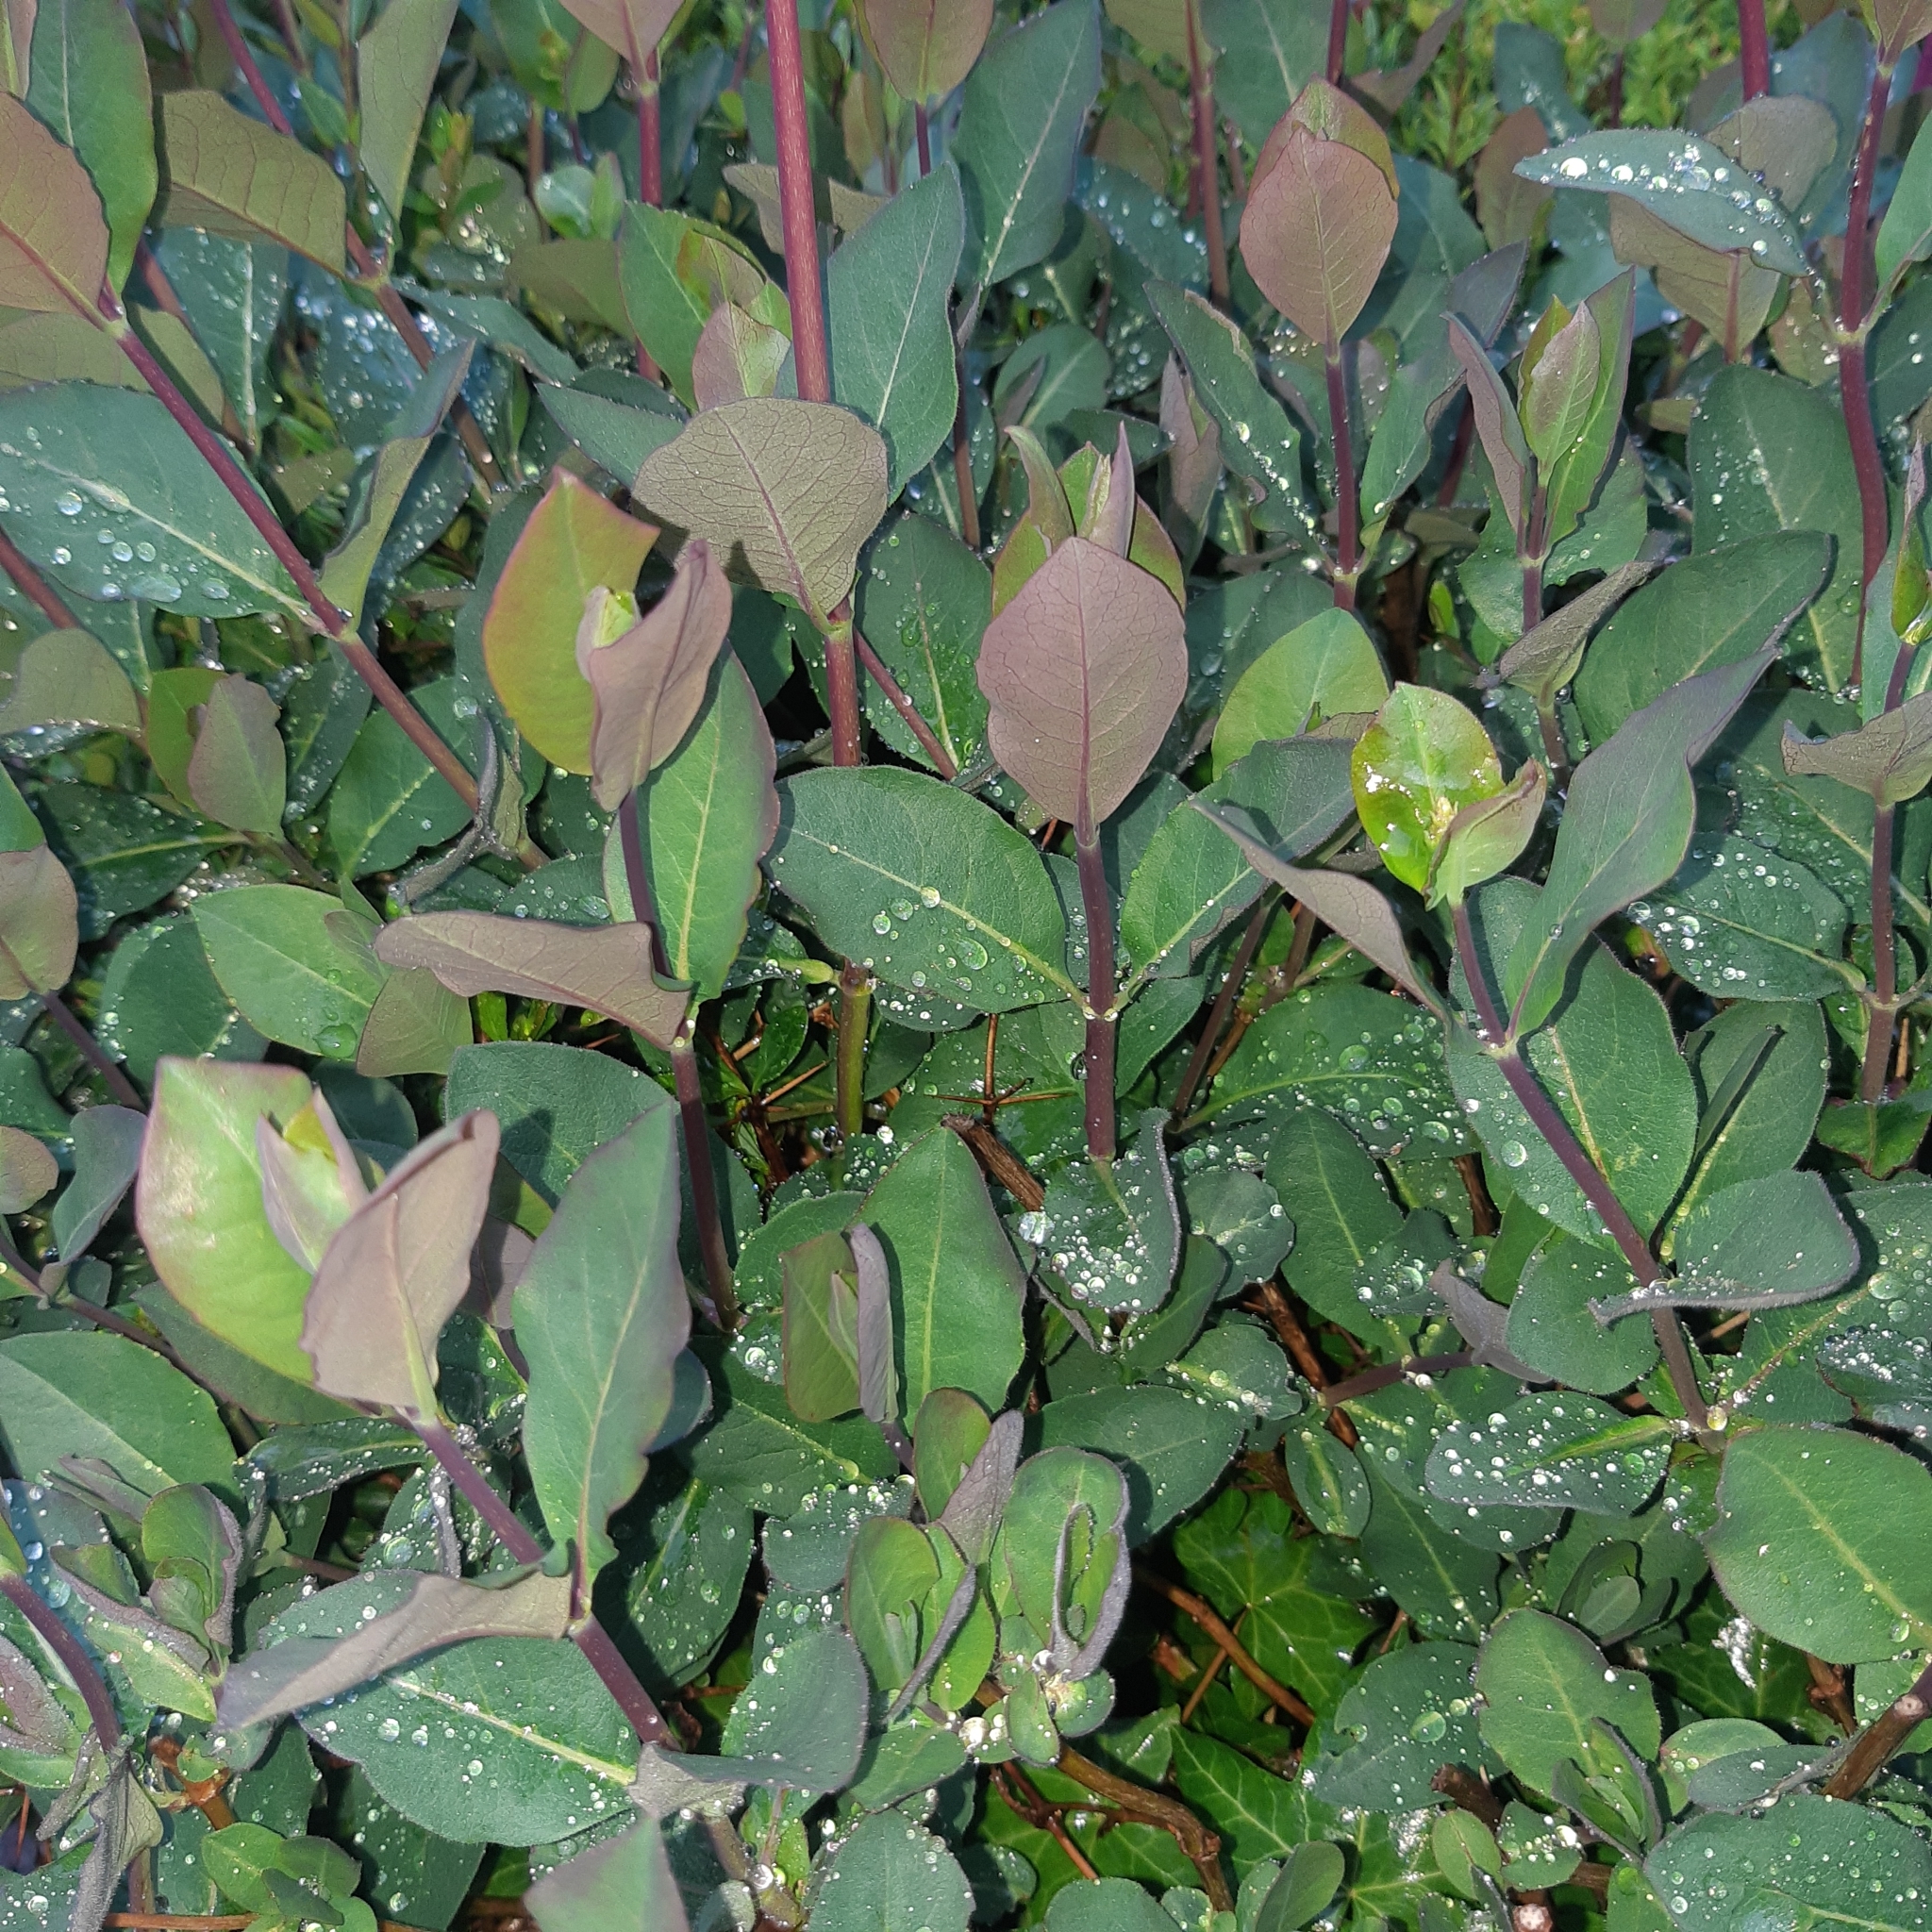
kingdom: Plantae
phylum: Tracheophyta
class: Magnoliopsida
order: Dipsacales
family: Caprifoliaceae
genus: Lonicera
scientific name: Lonicera periclymenum
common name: European honeysuckle
